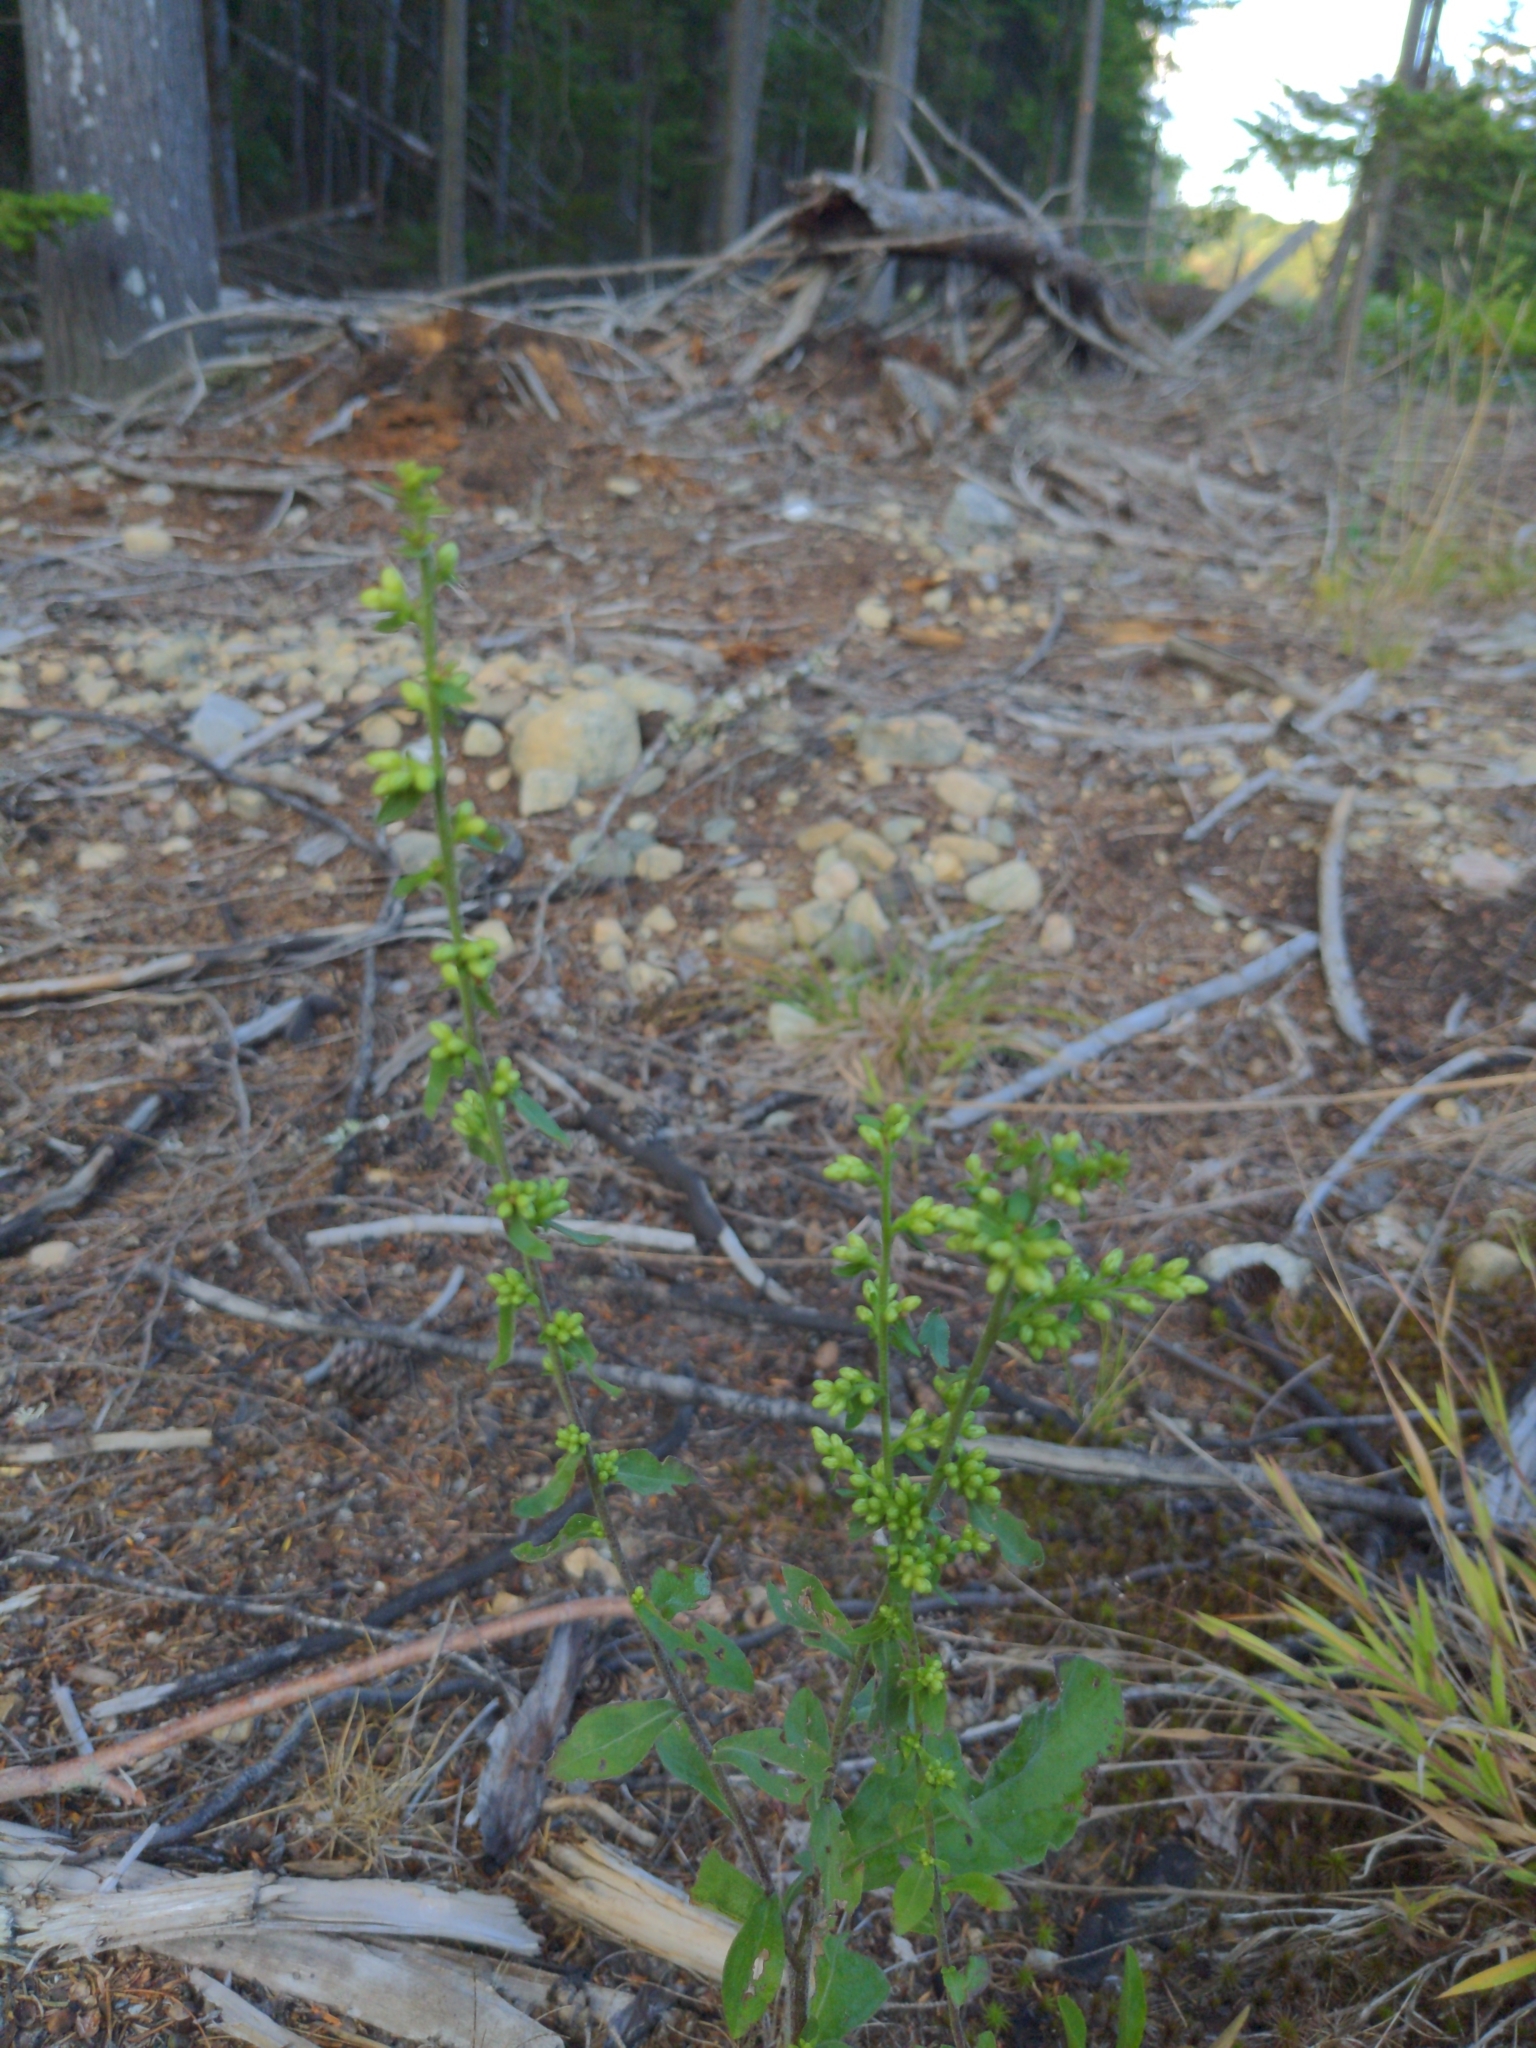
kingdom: Plantae
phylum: Tracheophyta
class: Magnoliopsida
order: Asterales
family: Asteraceae
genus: Solidago
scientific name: Solidago bicolor
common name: Silverrod
